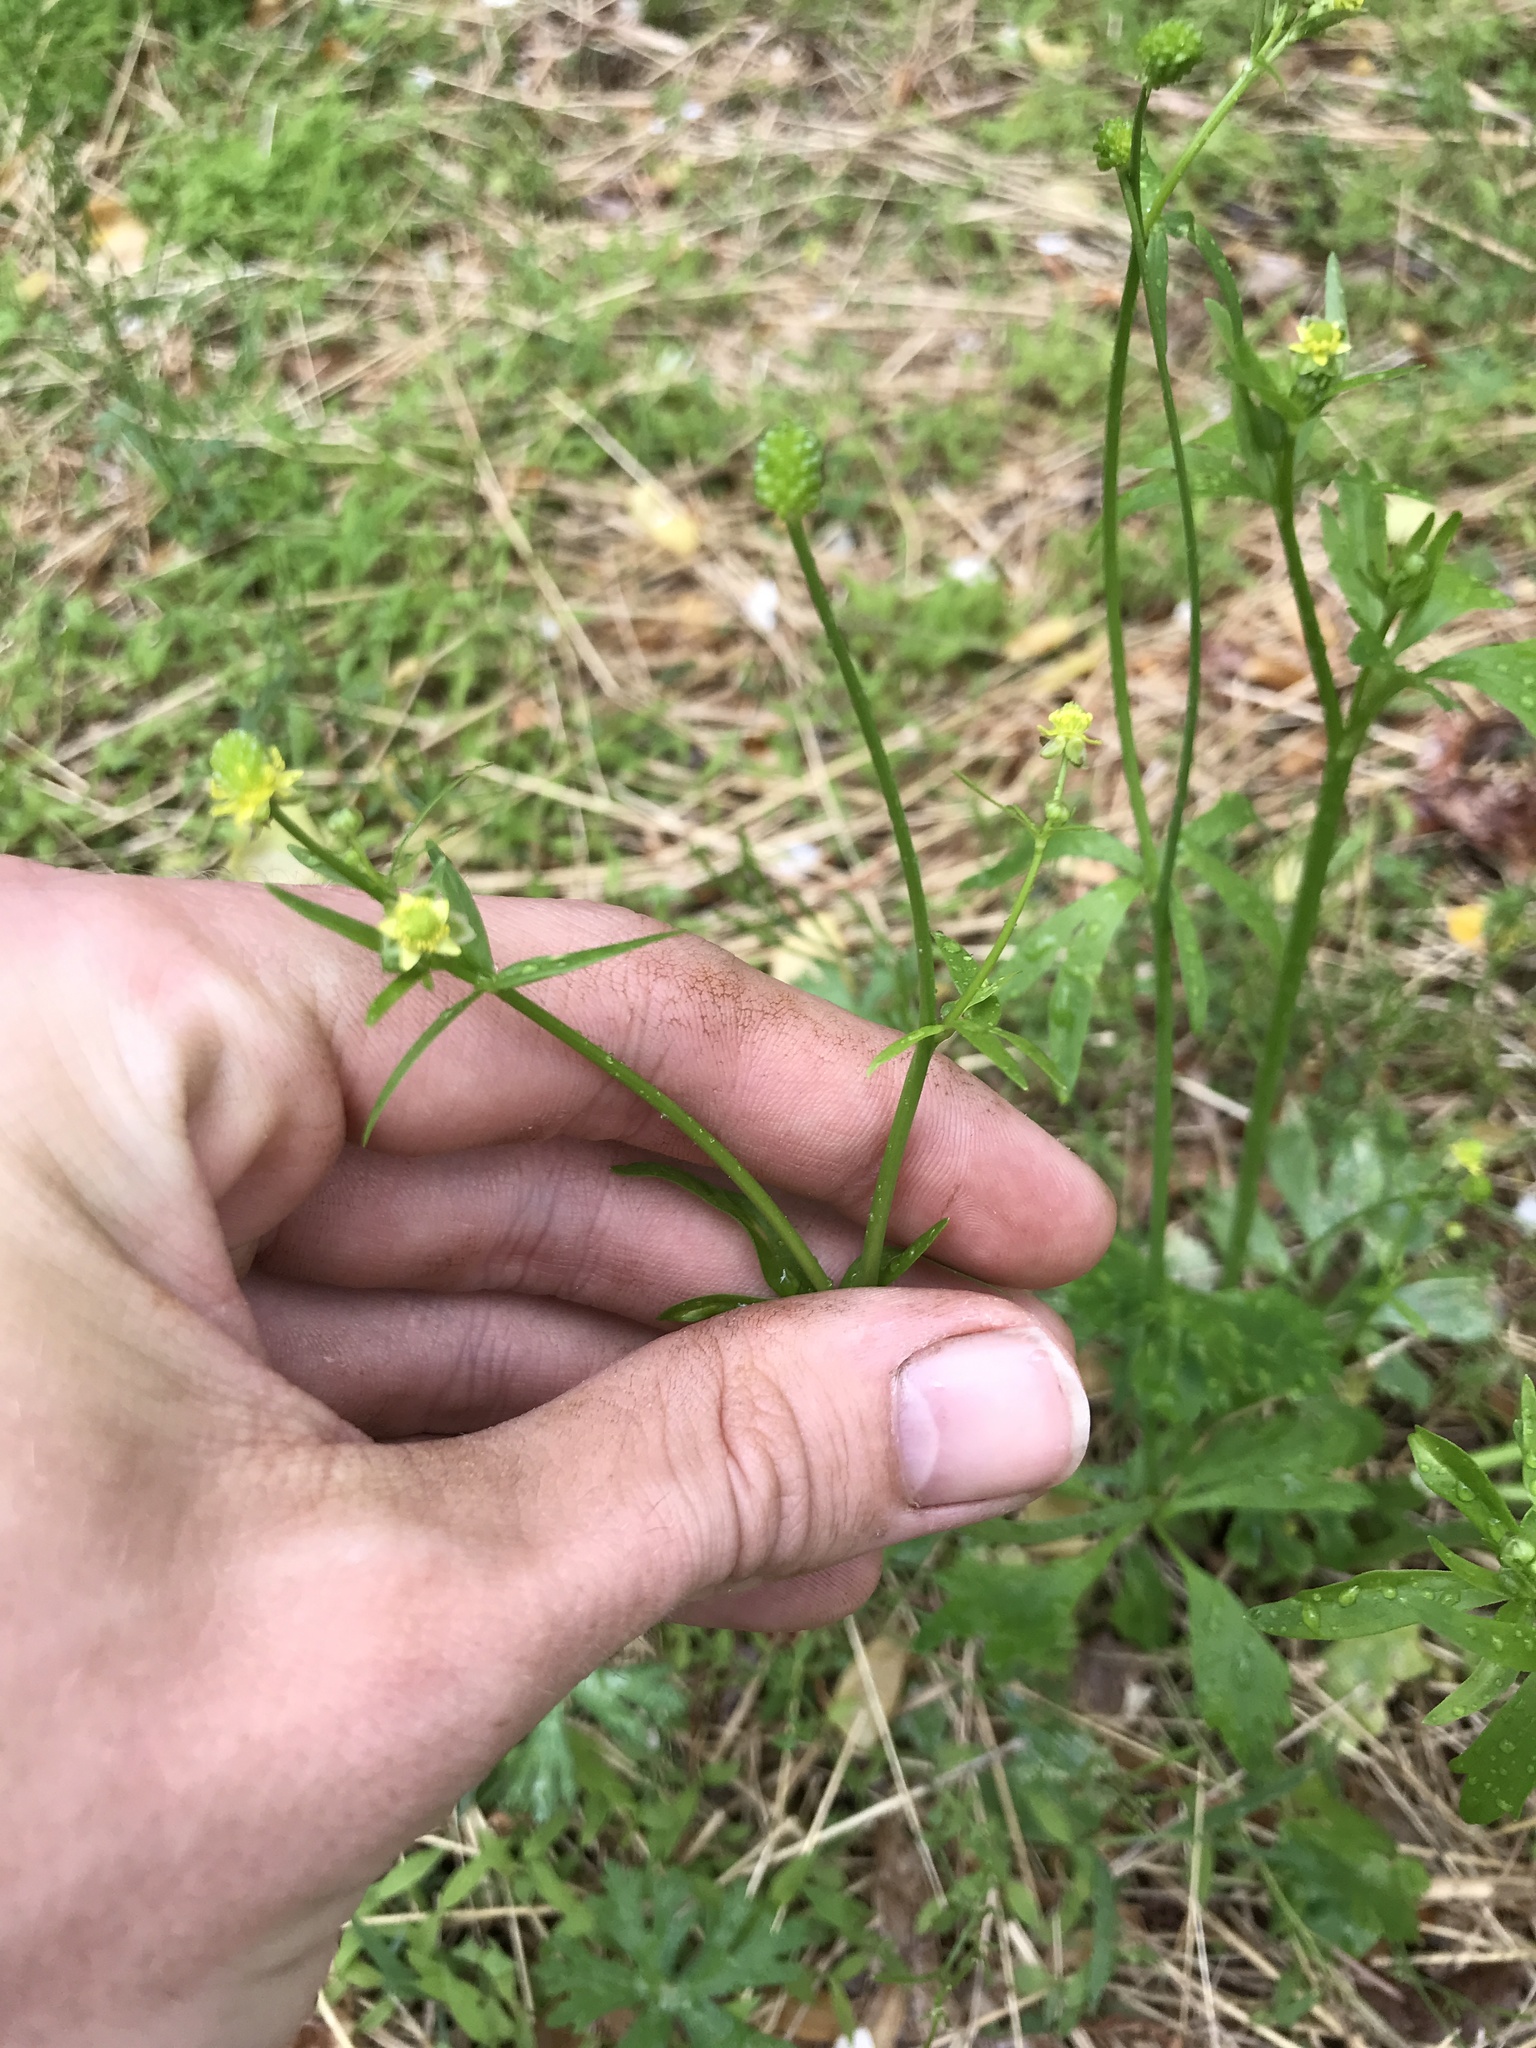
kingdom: Plantae
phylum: Tracheophyta
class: Magnoliopsida
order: Ranunculales
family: Ranunculaceae
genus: Ranunculus
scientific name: Ranunculus abortivus
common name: Early wood buttercup
